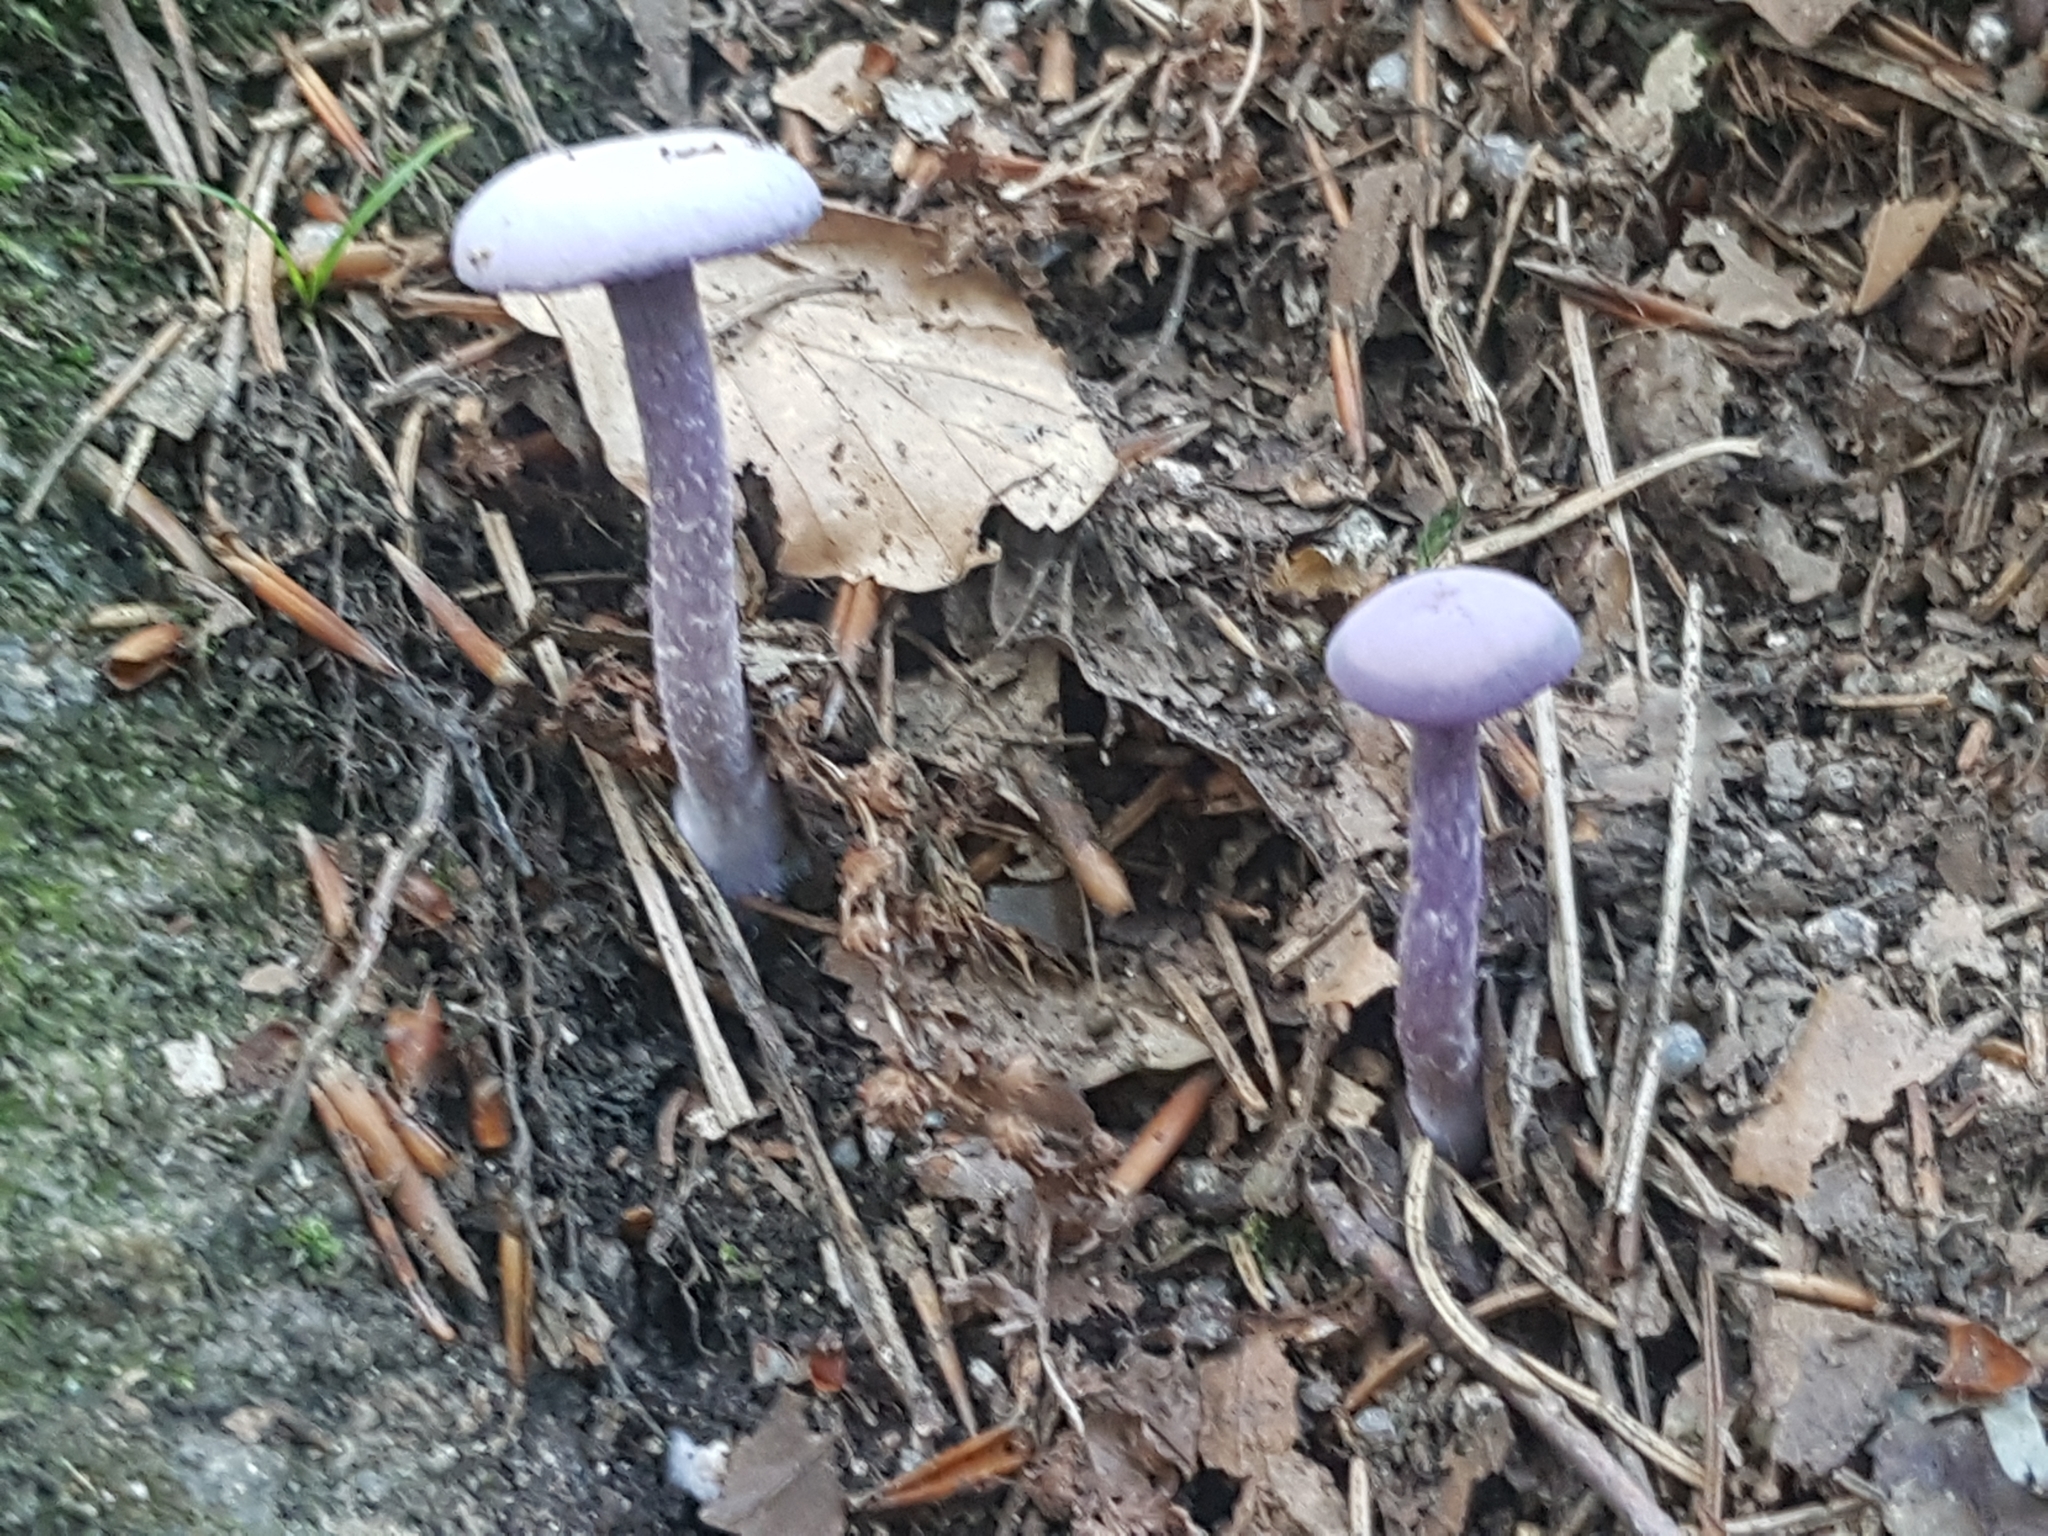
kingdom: Fungi
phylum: Basidiomycota
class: Agaricomycetes
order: Agaricales
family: Hydnangiaceae
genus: Laccaria
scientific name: Laccaria amethystina
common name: Amethyst deceiver
